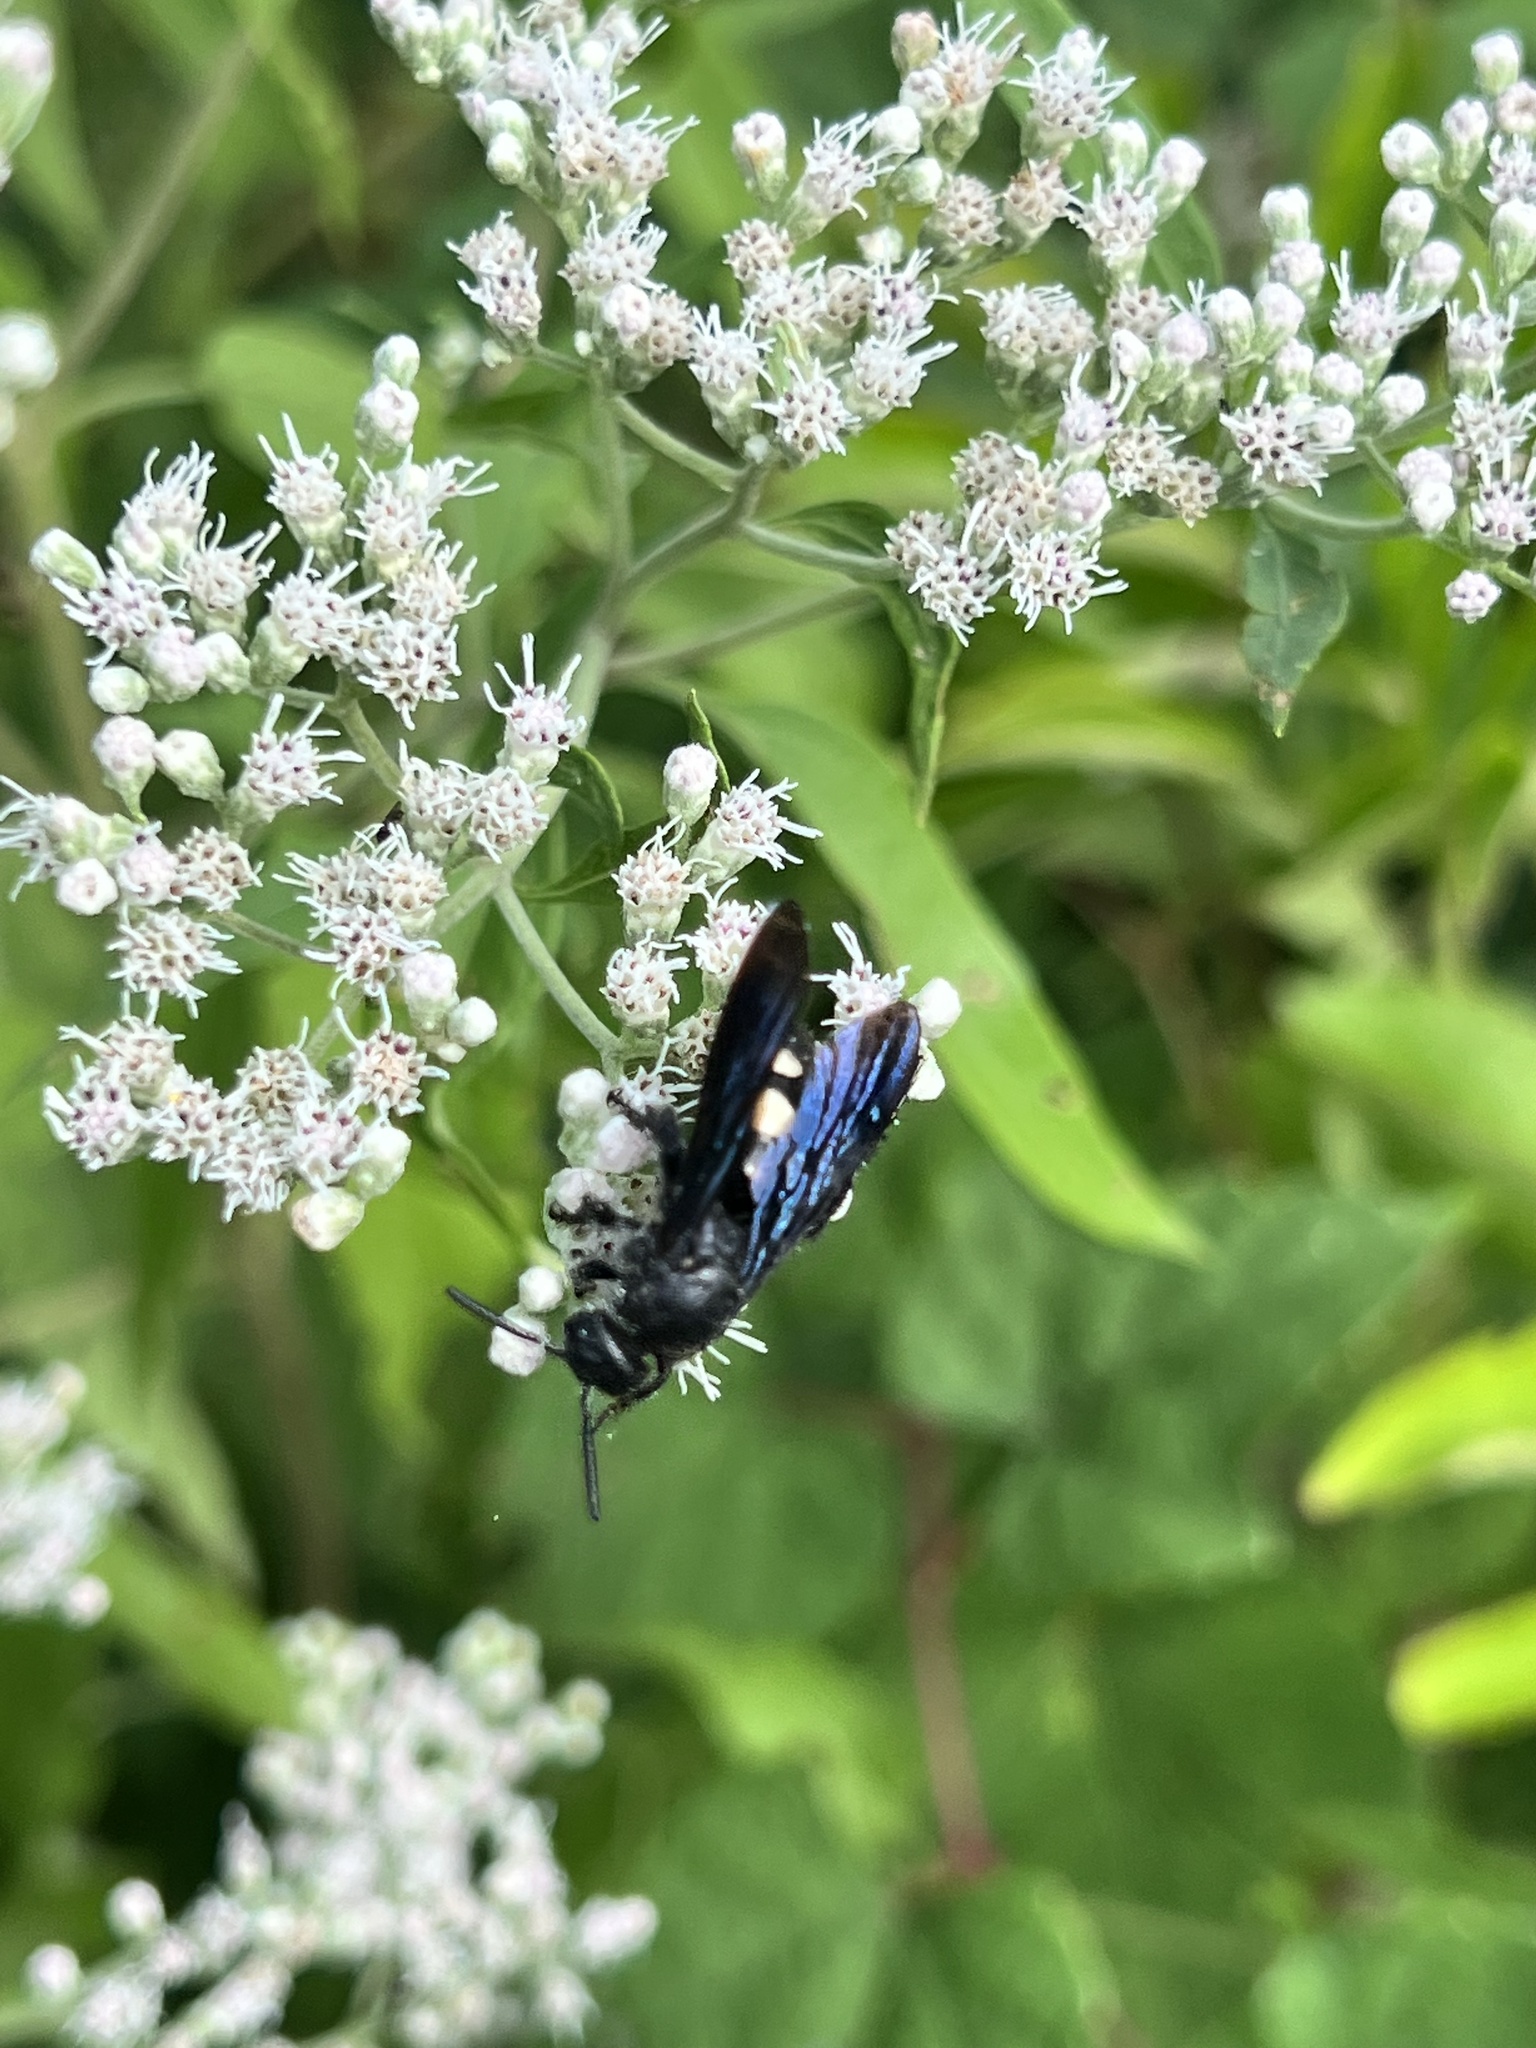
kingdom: Animalia
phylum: Arthropoda
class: Insecta
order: Hymenoptera
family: Scoliidae
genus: Scolia
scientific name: Scolia bicincta
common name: Double-banded scoliid wasp
